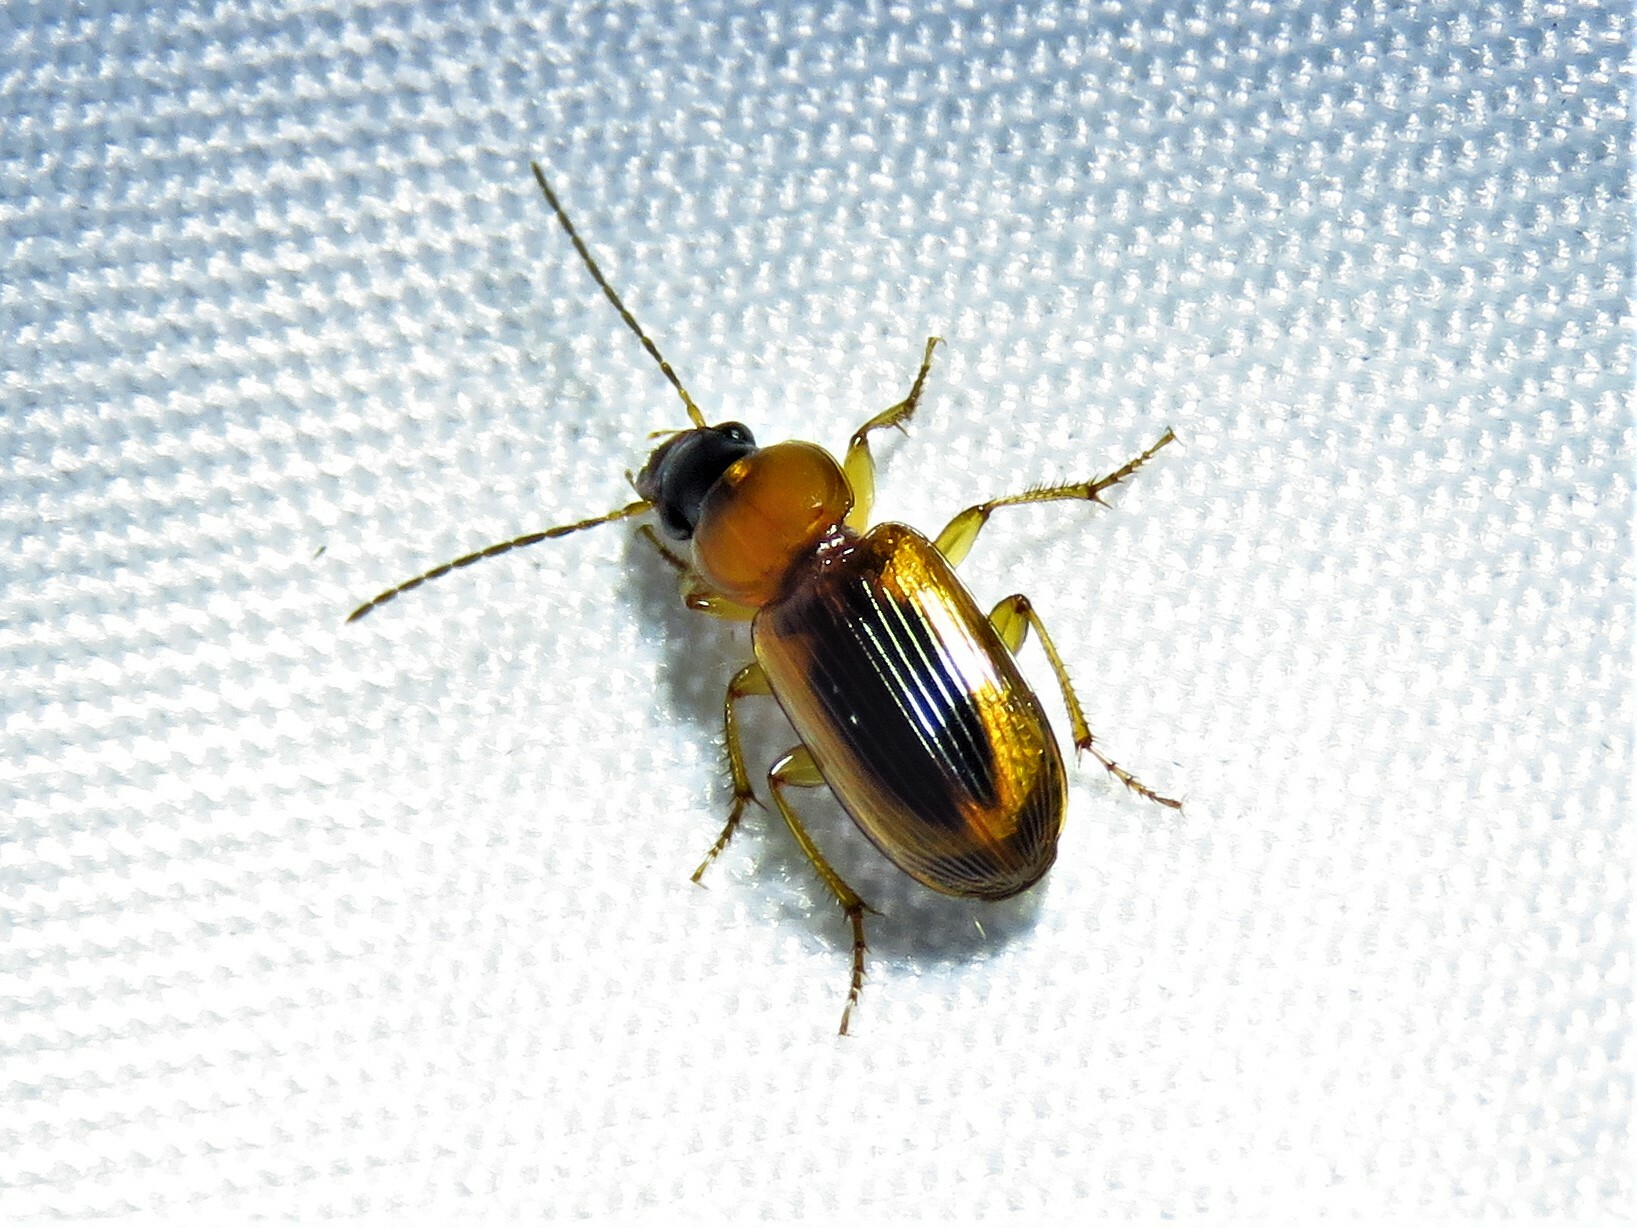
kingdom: Animalia
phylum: Arthropoda
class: Insecta
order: Coleoptera
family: Carabidae
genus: Stenolophus
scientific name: Stenolophus dissimilis
